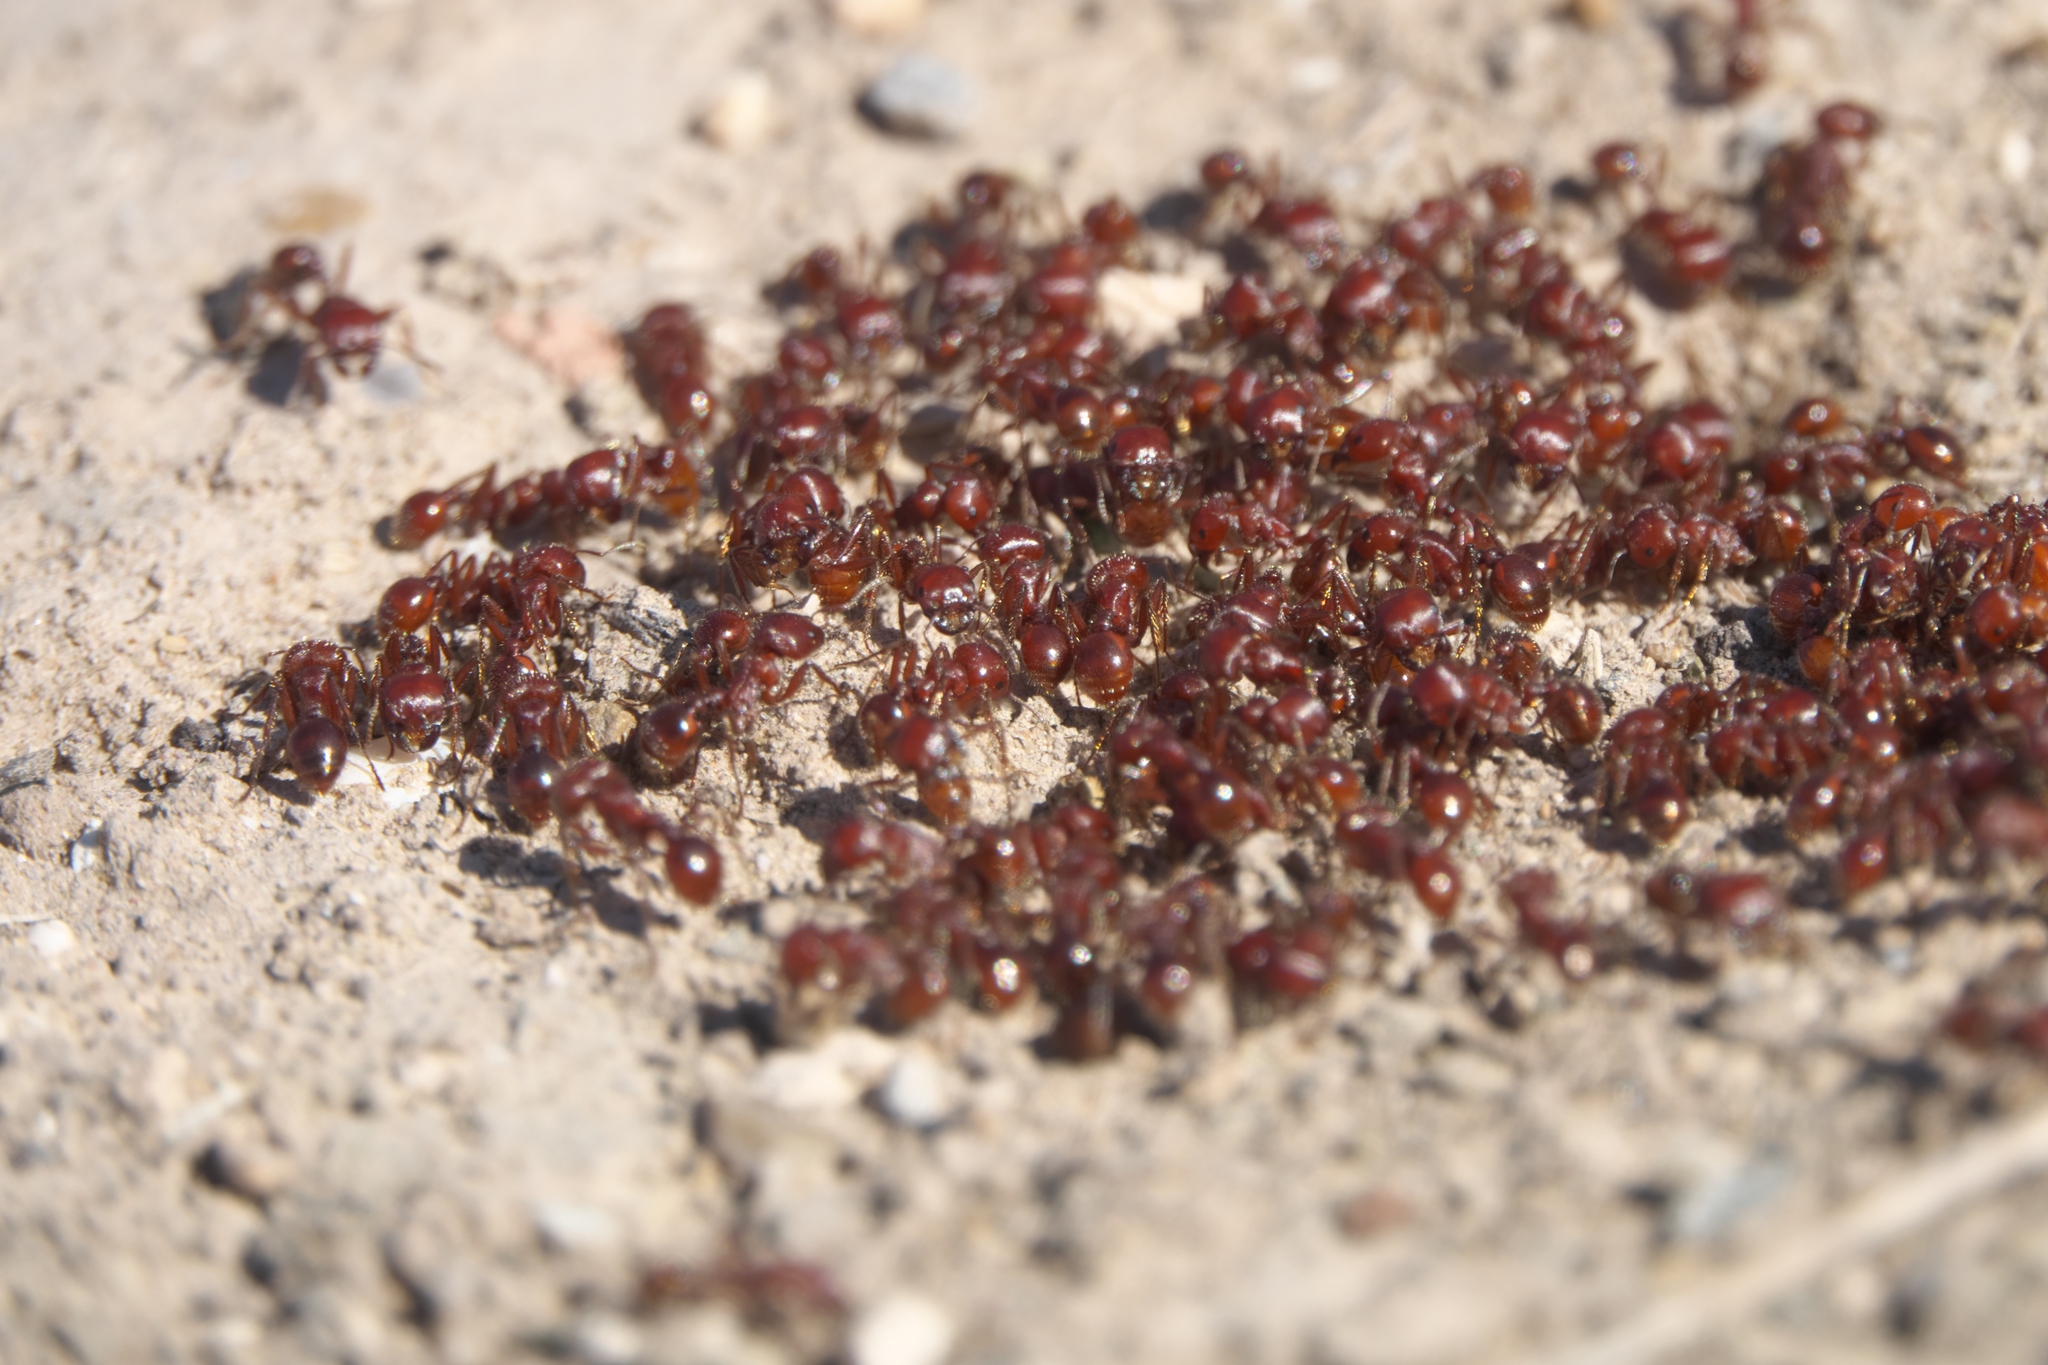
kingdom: Animalia
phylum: Arthropoda
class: Insecta
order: Hymenoptera
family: Formicidae
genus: Pogonomyrmex
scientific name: Pogonomyrmex barbatus
